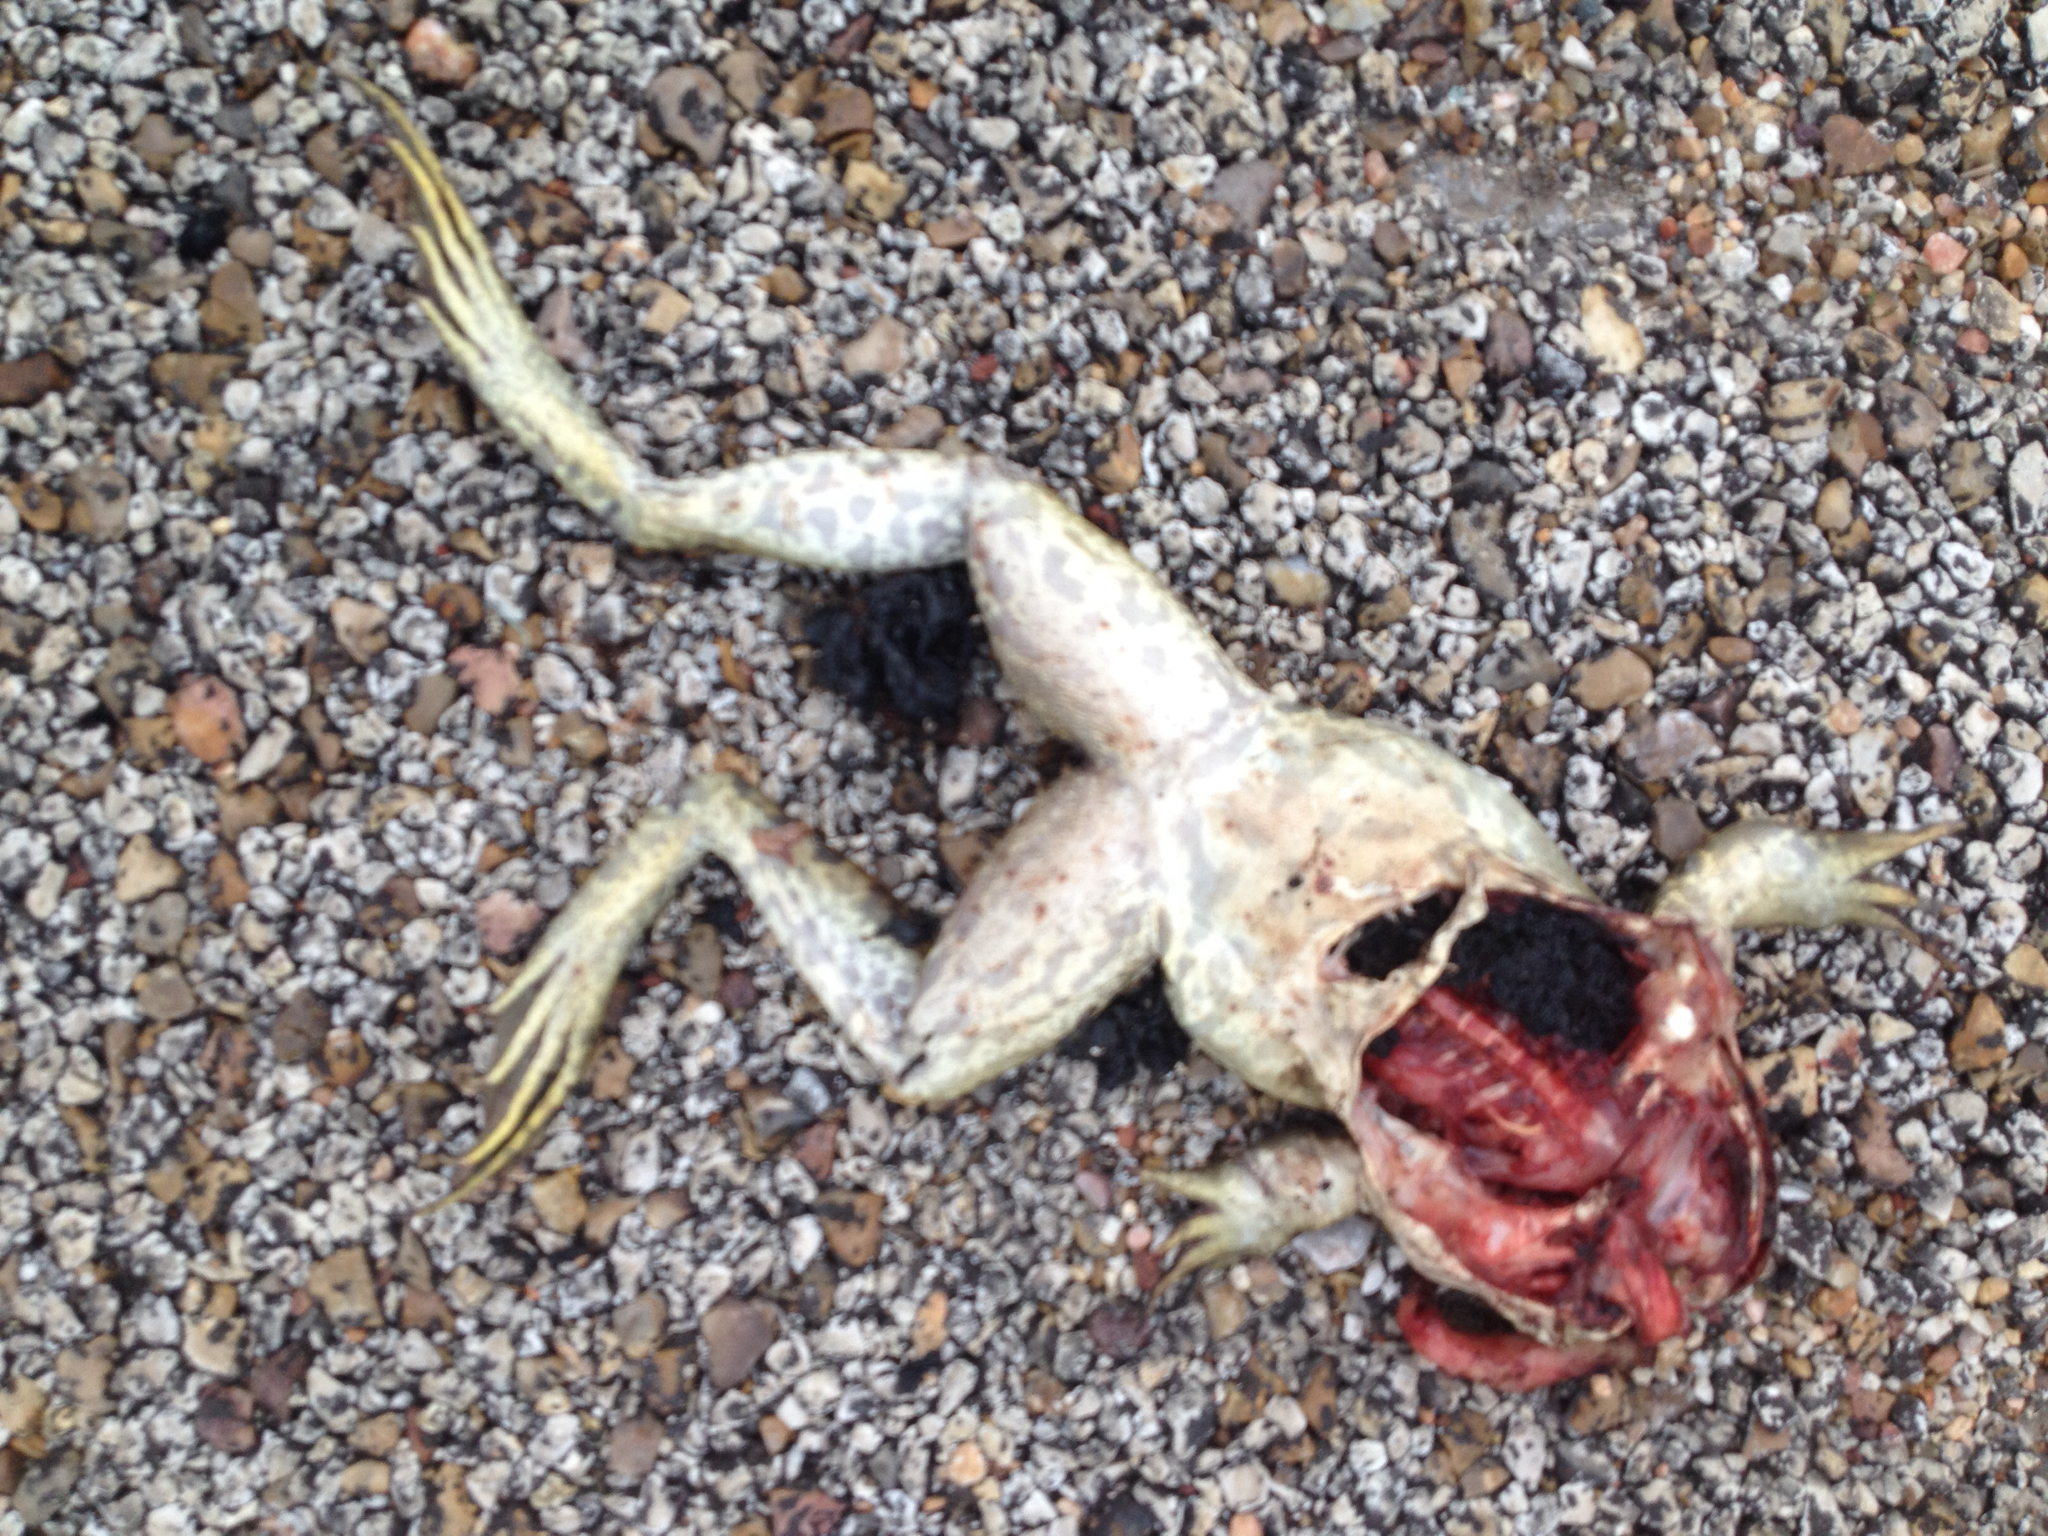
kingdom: Animalia
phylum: Chordata
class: Amphibia
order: Anura
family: Ranidae
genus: Lithobates
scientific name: Lithobates catesbeianus
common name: American bullfrog
